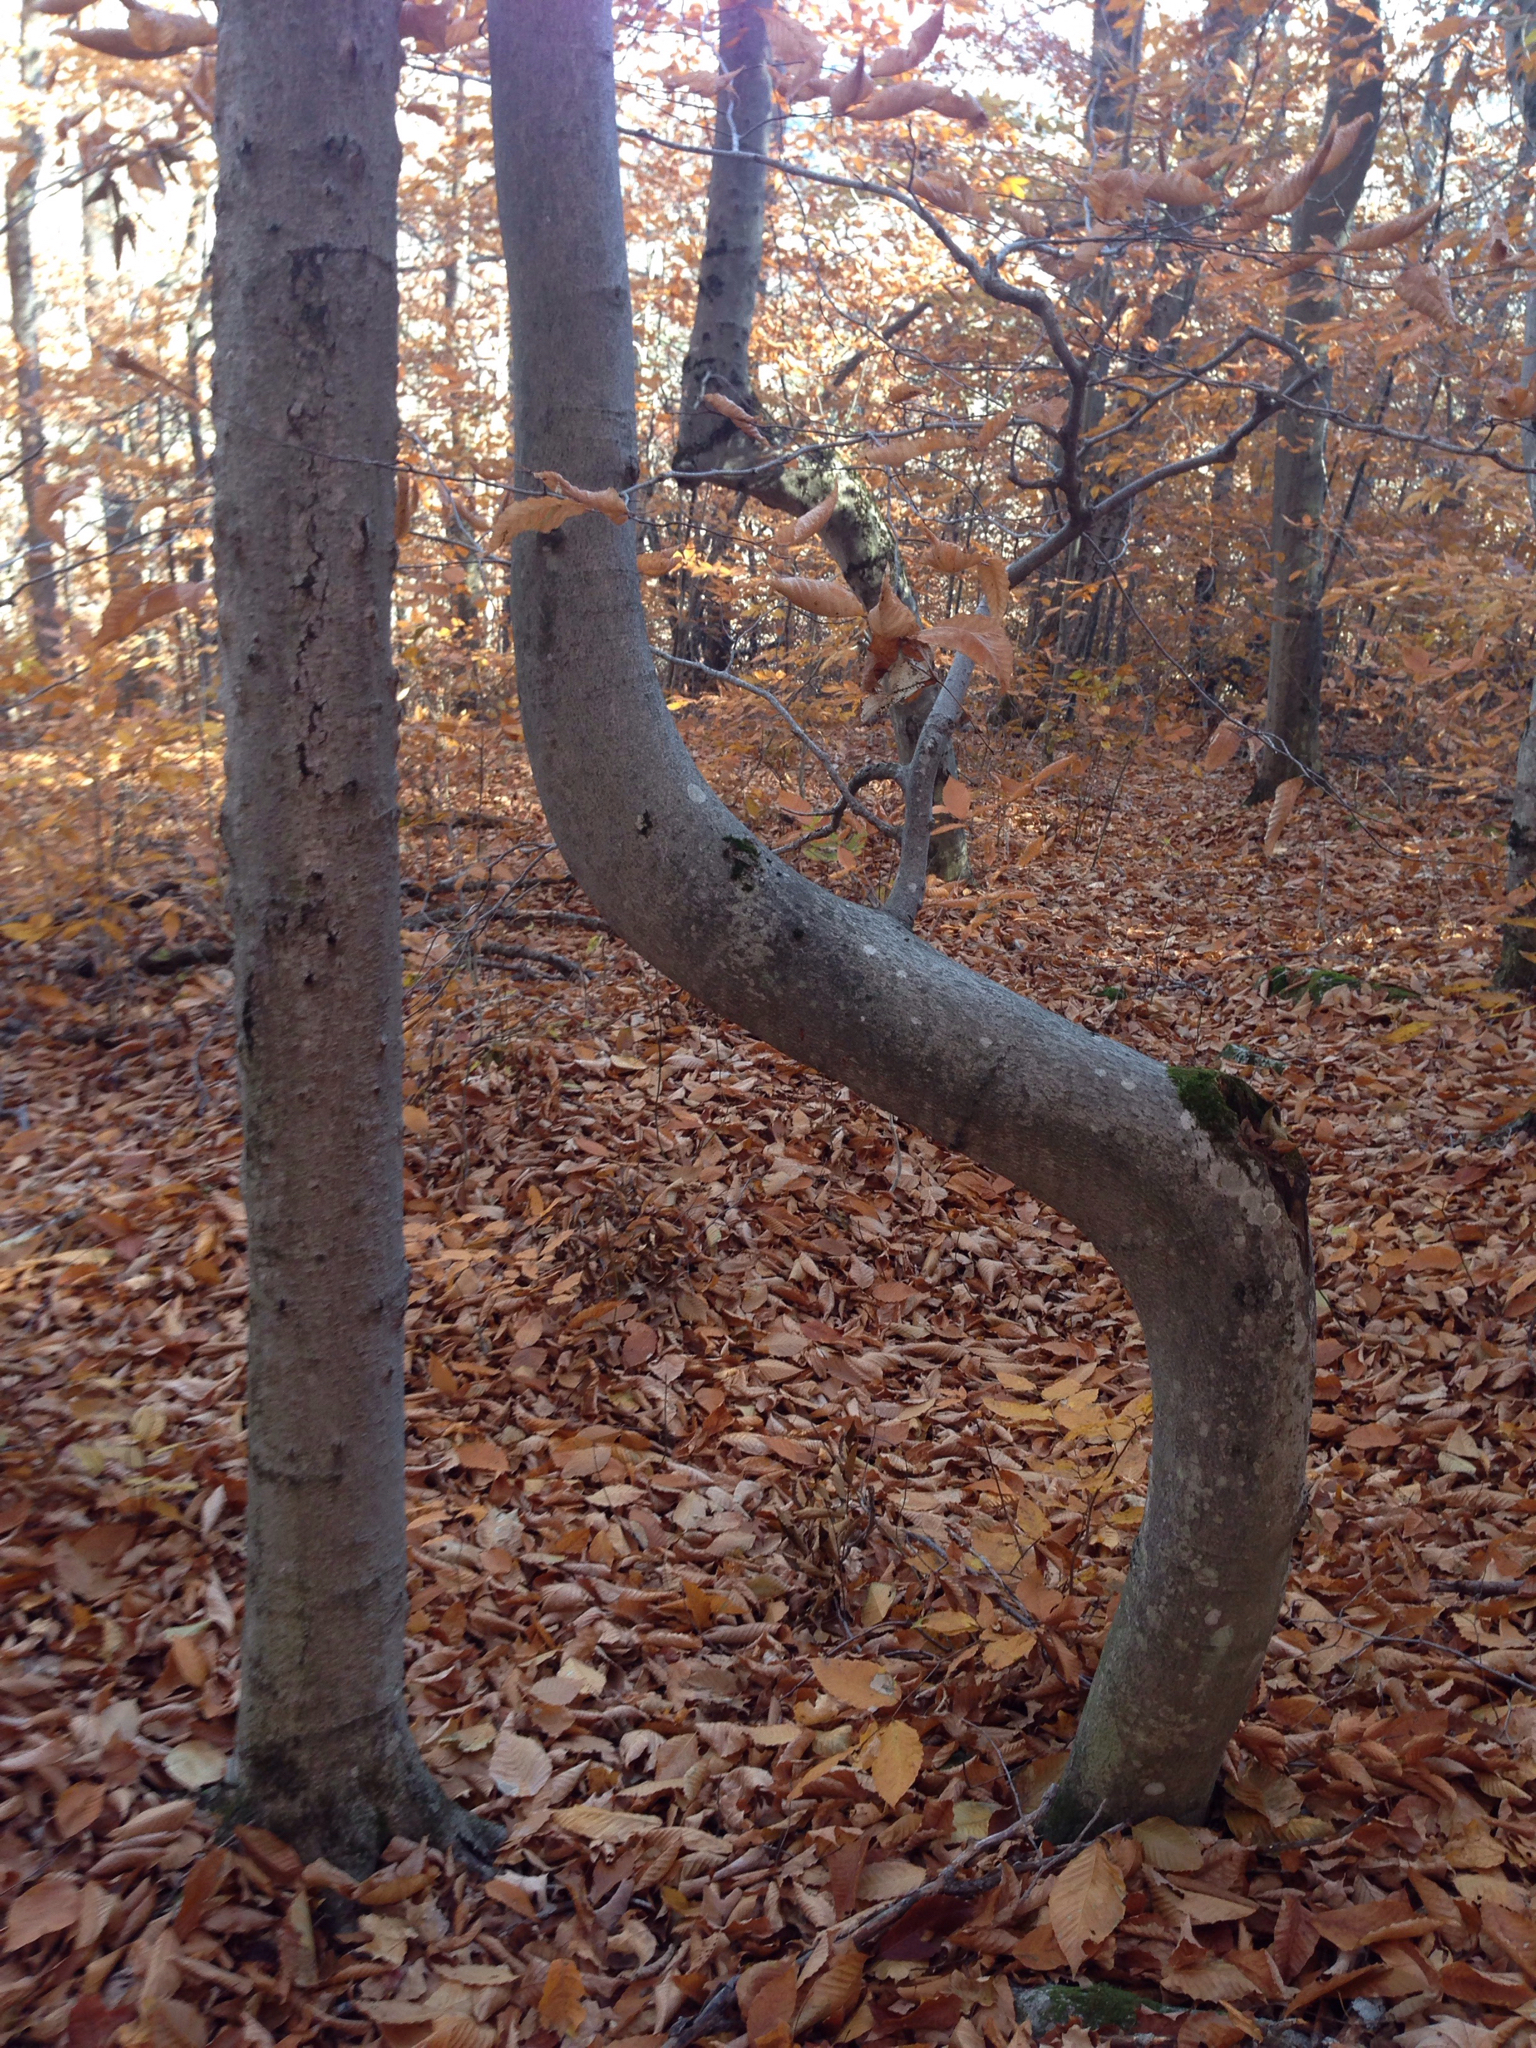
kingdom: Plantae
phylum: Tracheophyta
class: Magnoliopsida
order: Fagales
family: Fagaceae
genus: Fagus
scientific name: Fagus grandifolia
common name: American beech
